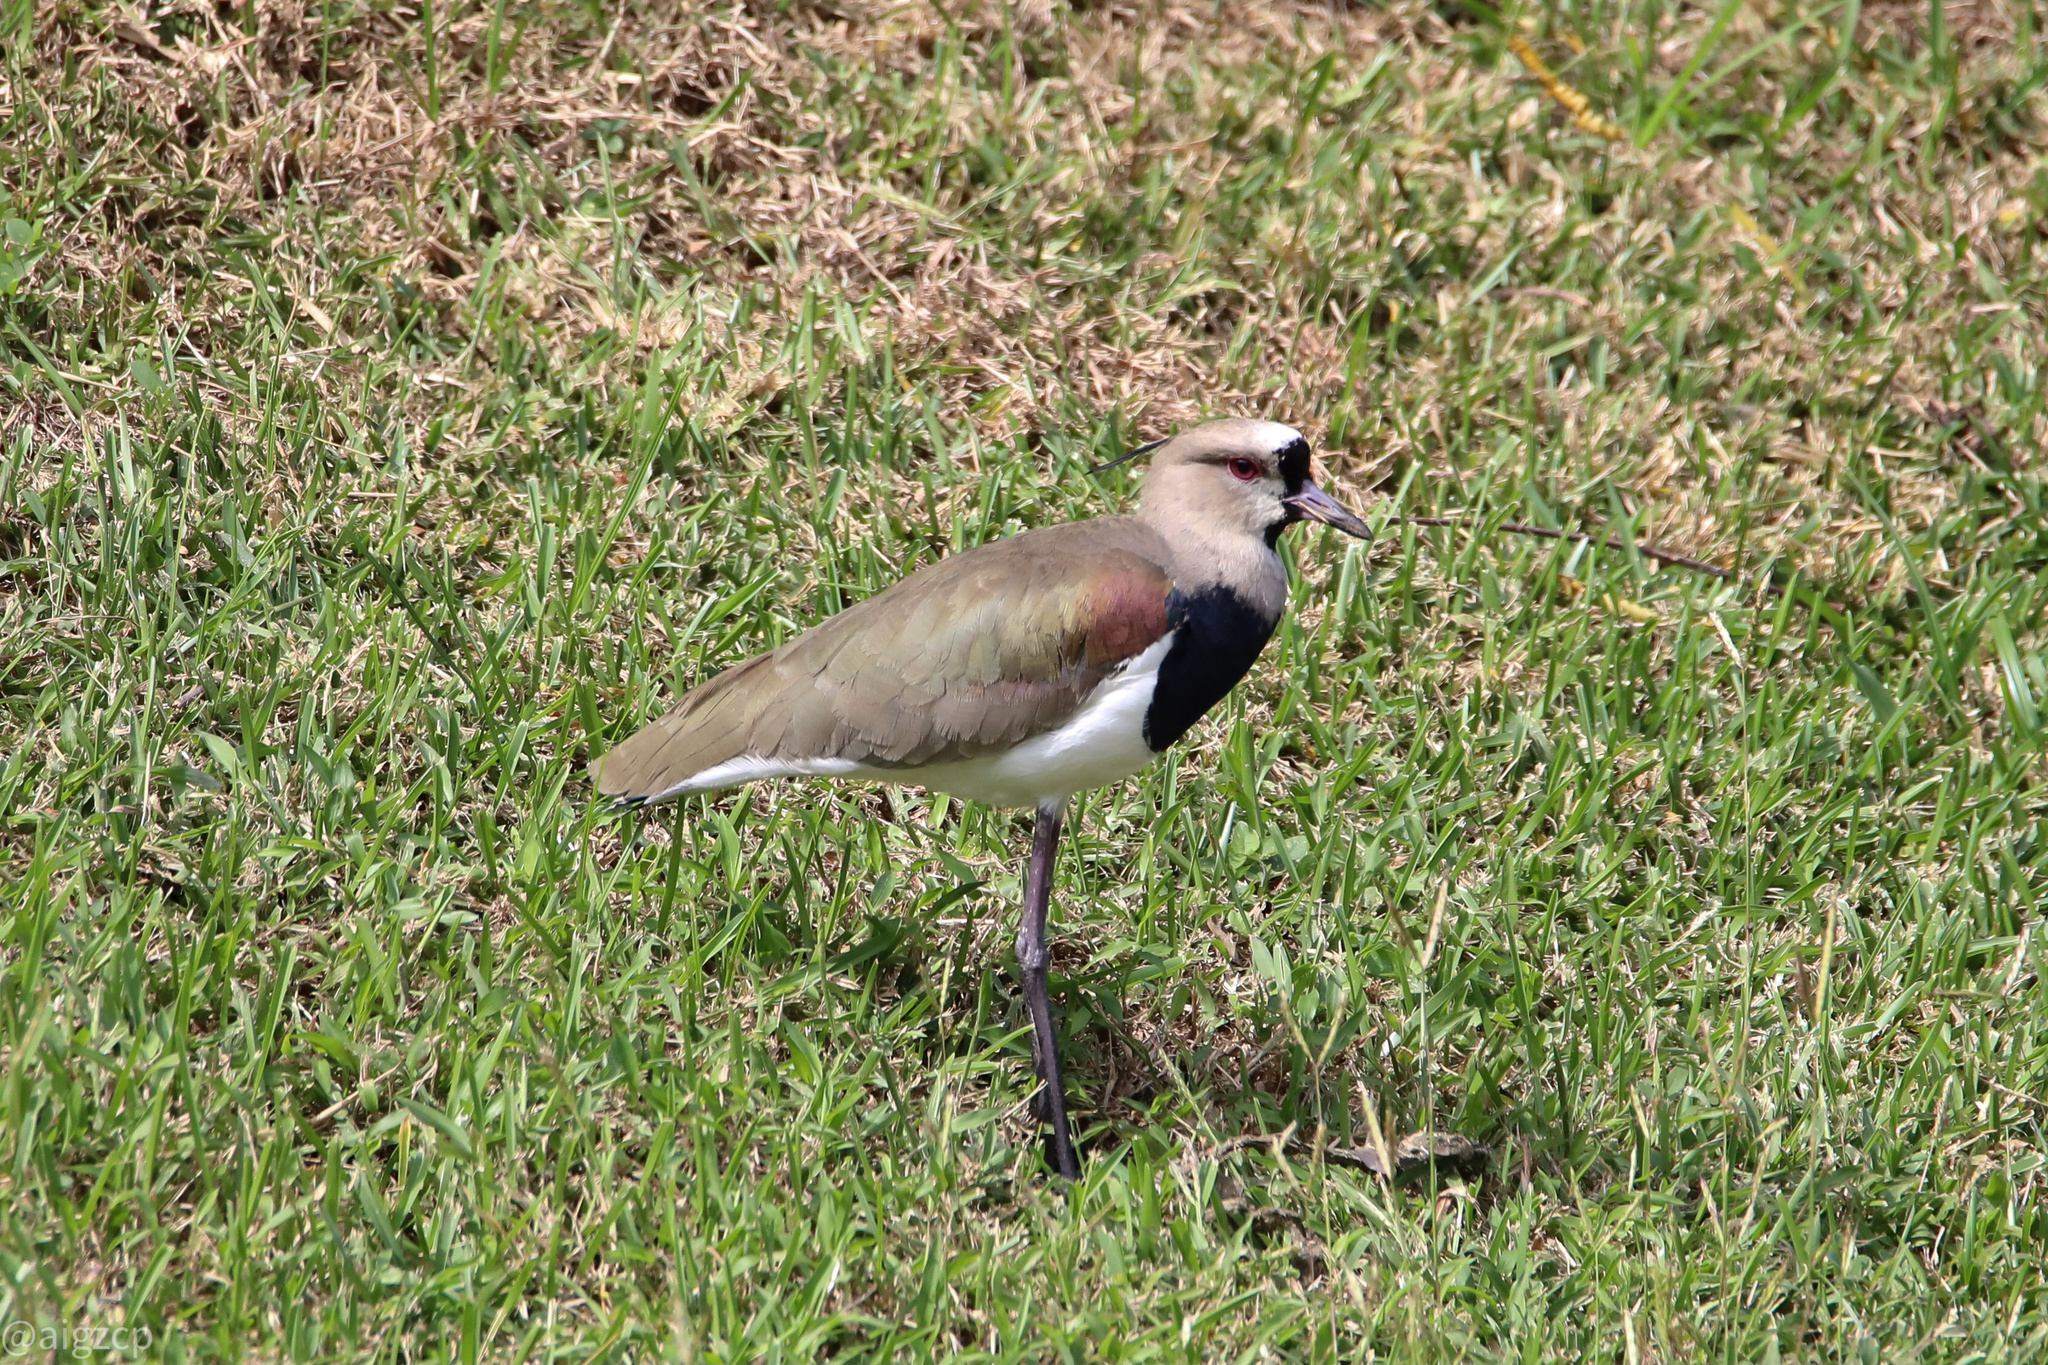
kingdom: Animalia
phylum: Chordata
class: Aves
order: Charadriiformes
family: Charadriidae
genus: Vanellus
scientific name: Vanellus chilensis
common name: Southern lapwing
